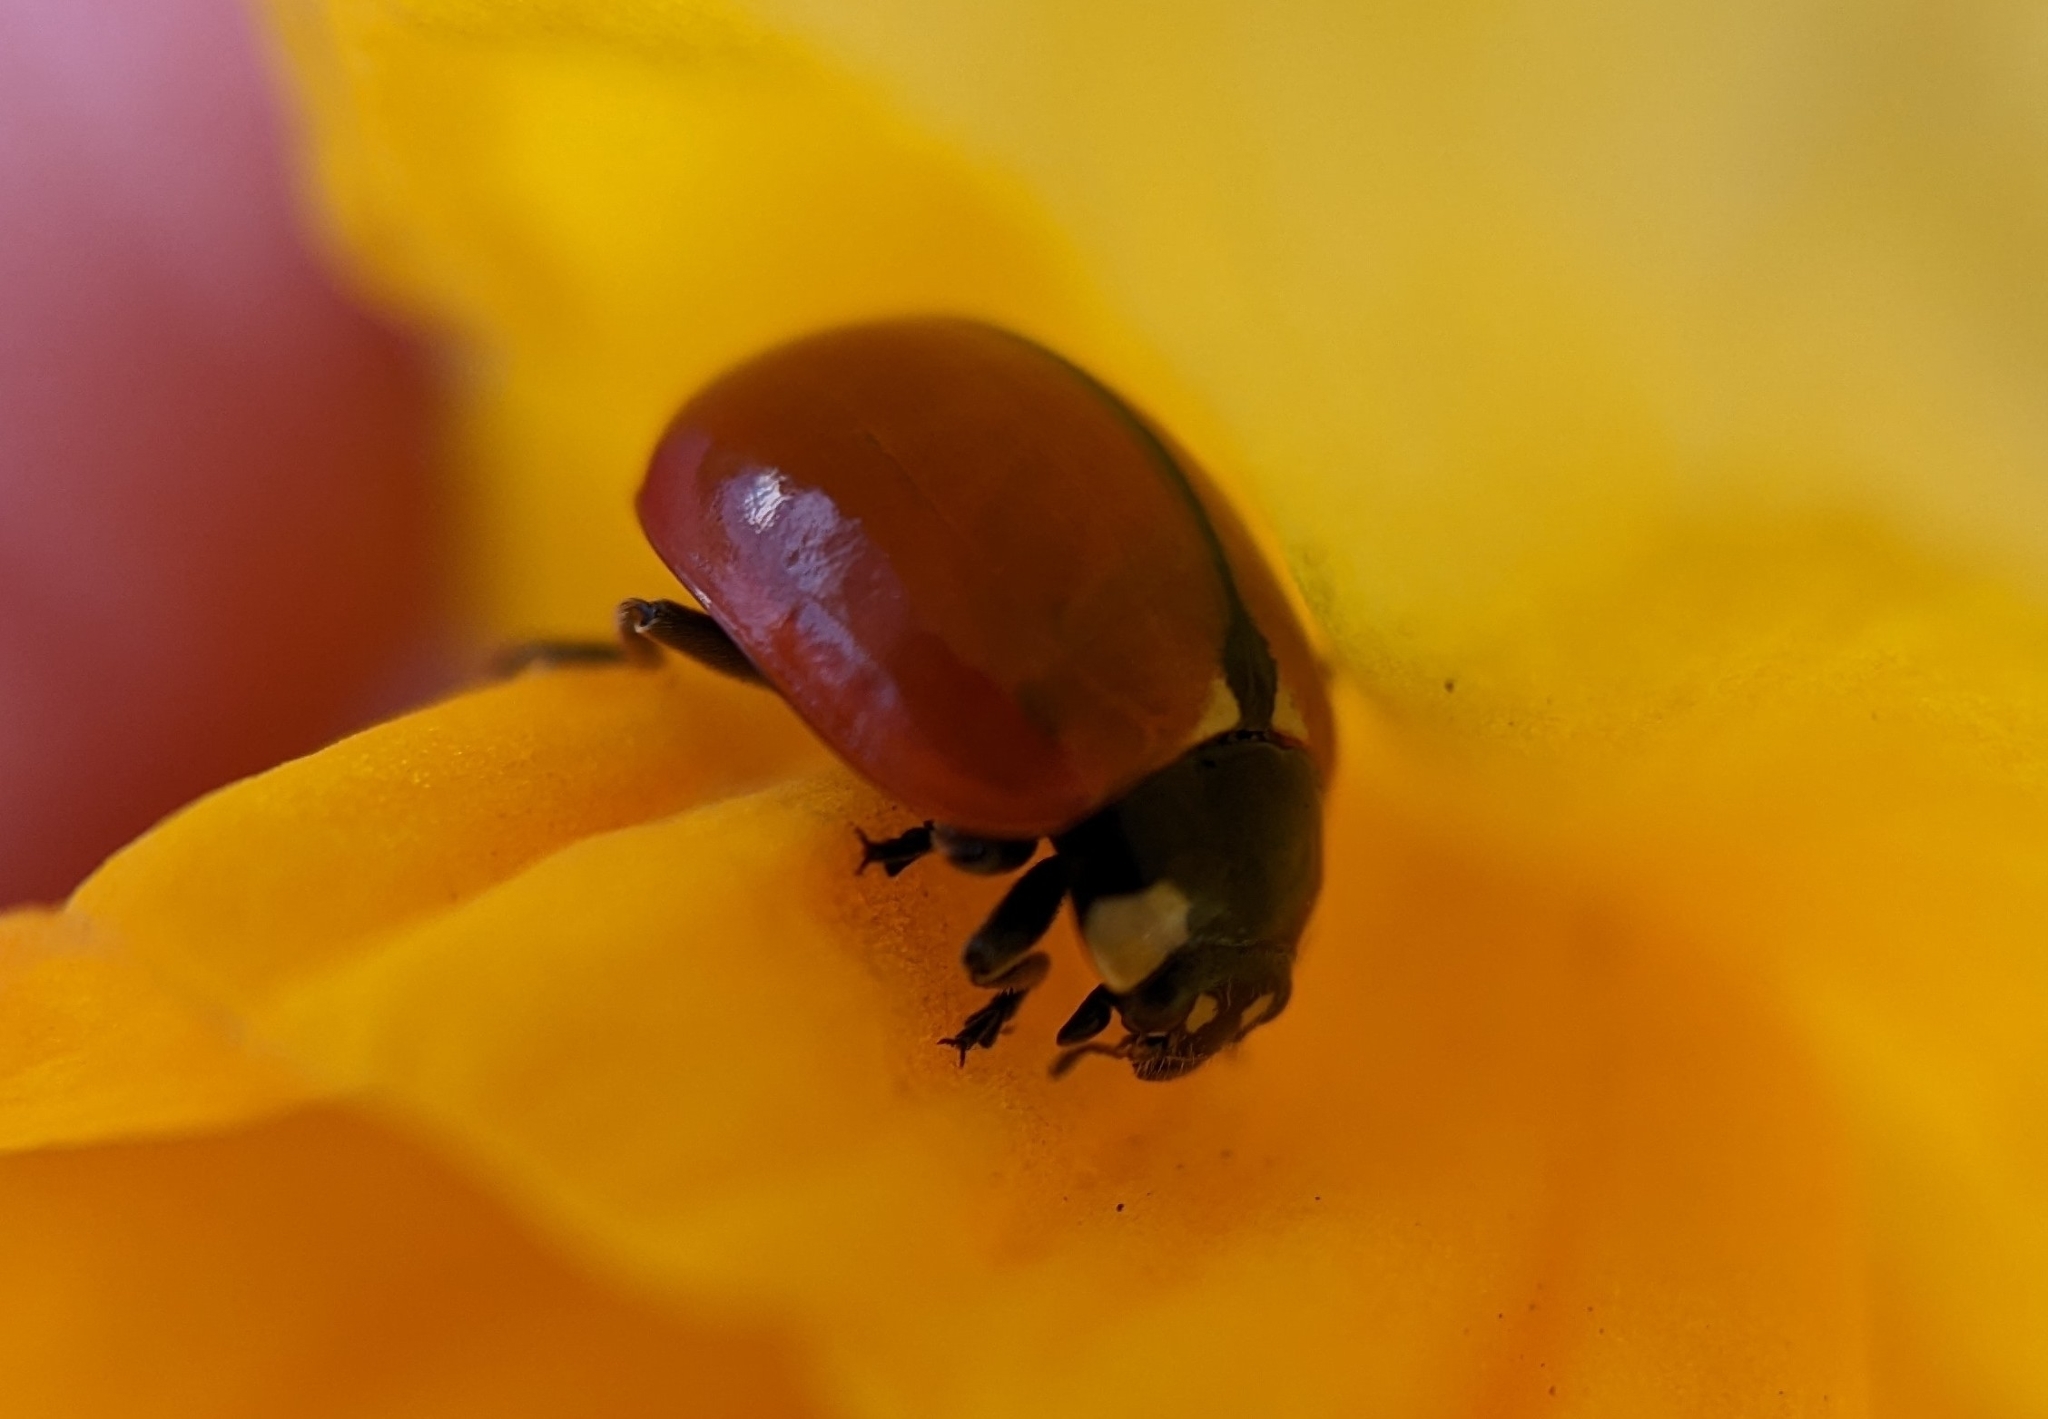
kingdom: Animalia
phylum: Arthropoda
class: Insecta
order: Coleoptera
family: Coccinellidae
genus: Coccinella
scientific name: Coccinella californica
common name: Lady beetle
